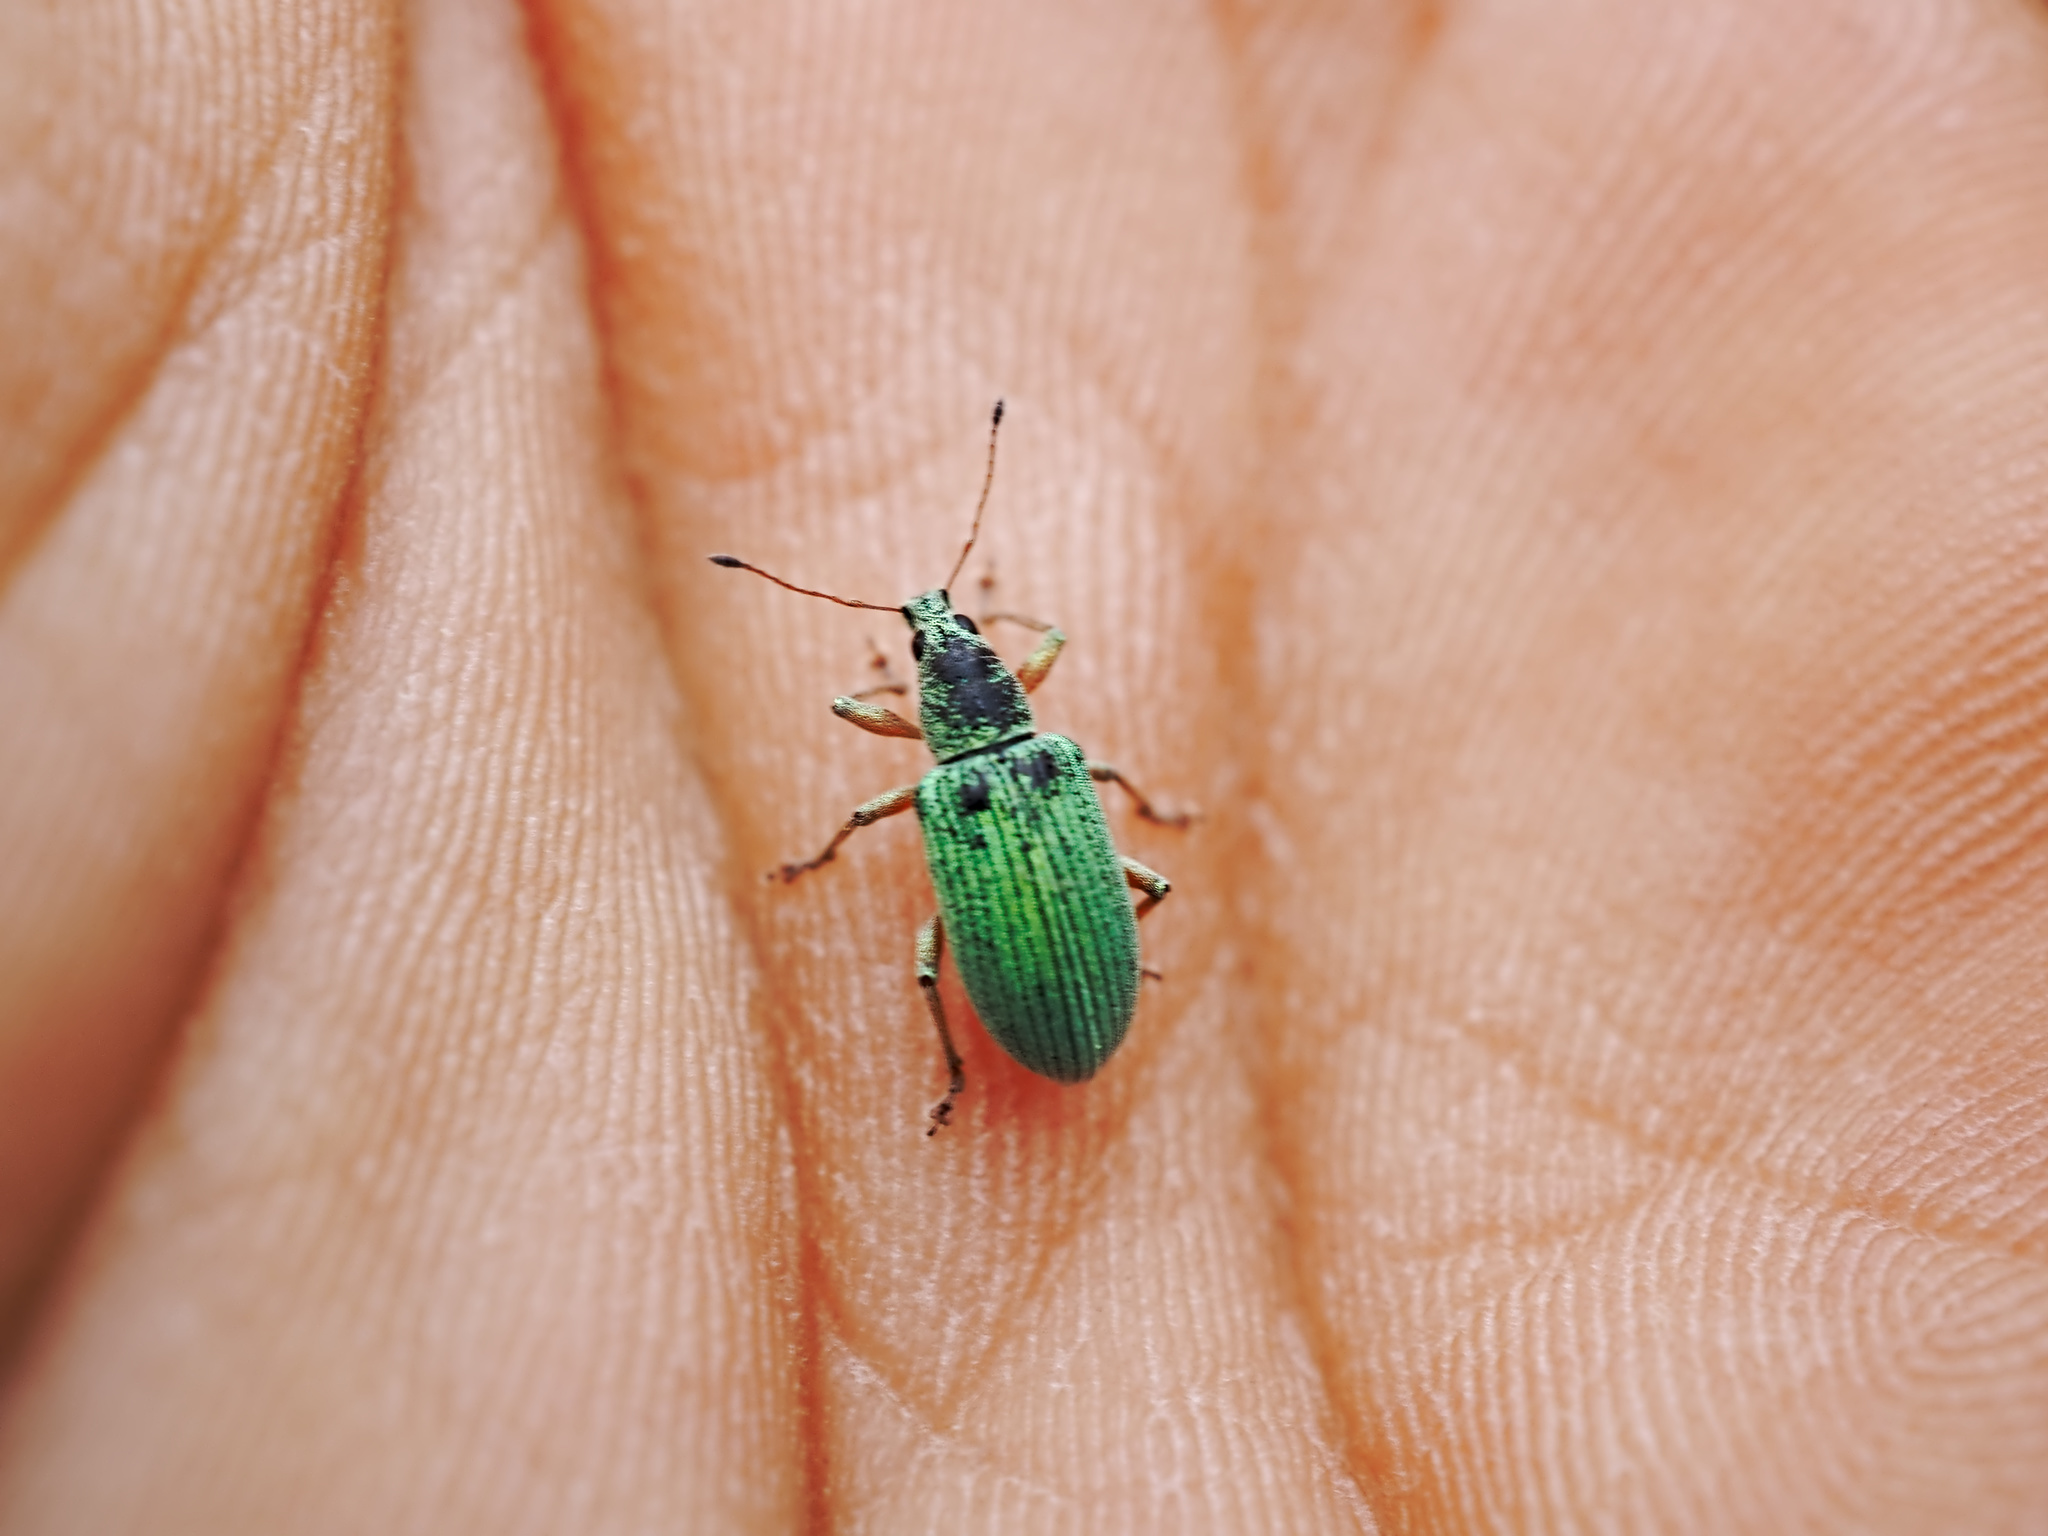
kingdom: Animalia
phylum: Arthropoda
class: Insecta
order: Coleoptera
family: Curculionidae
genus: Polydrusus
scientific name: Polydrusus formosus
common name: Weevil
